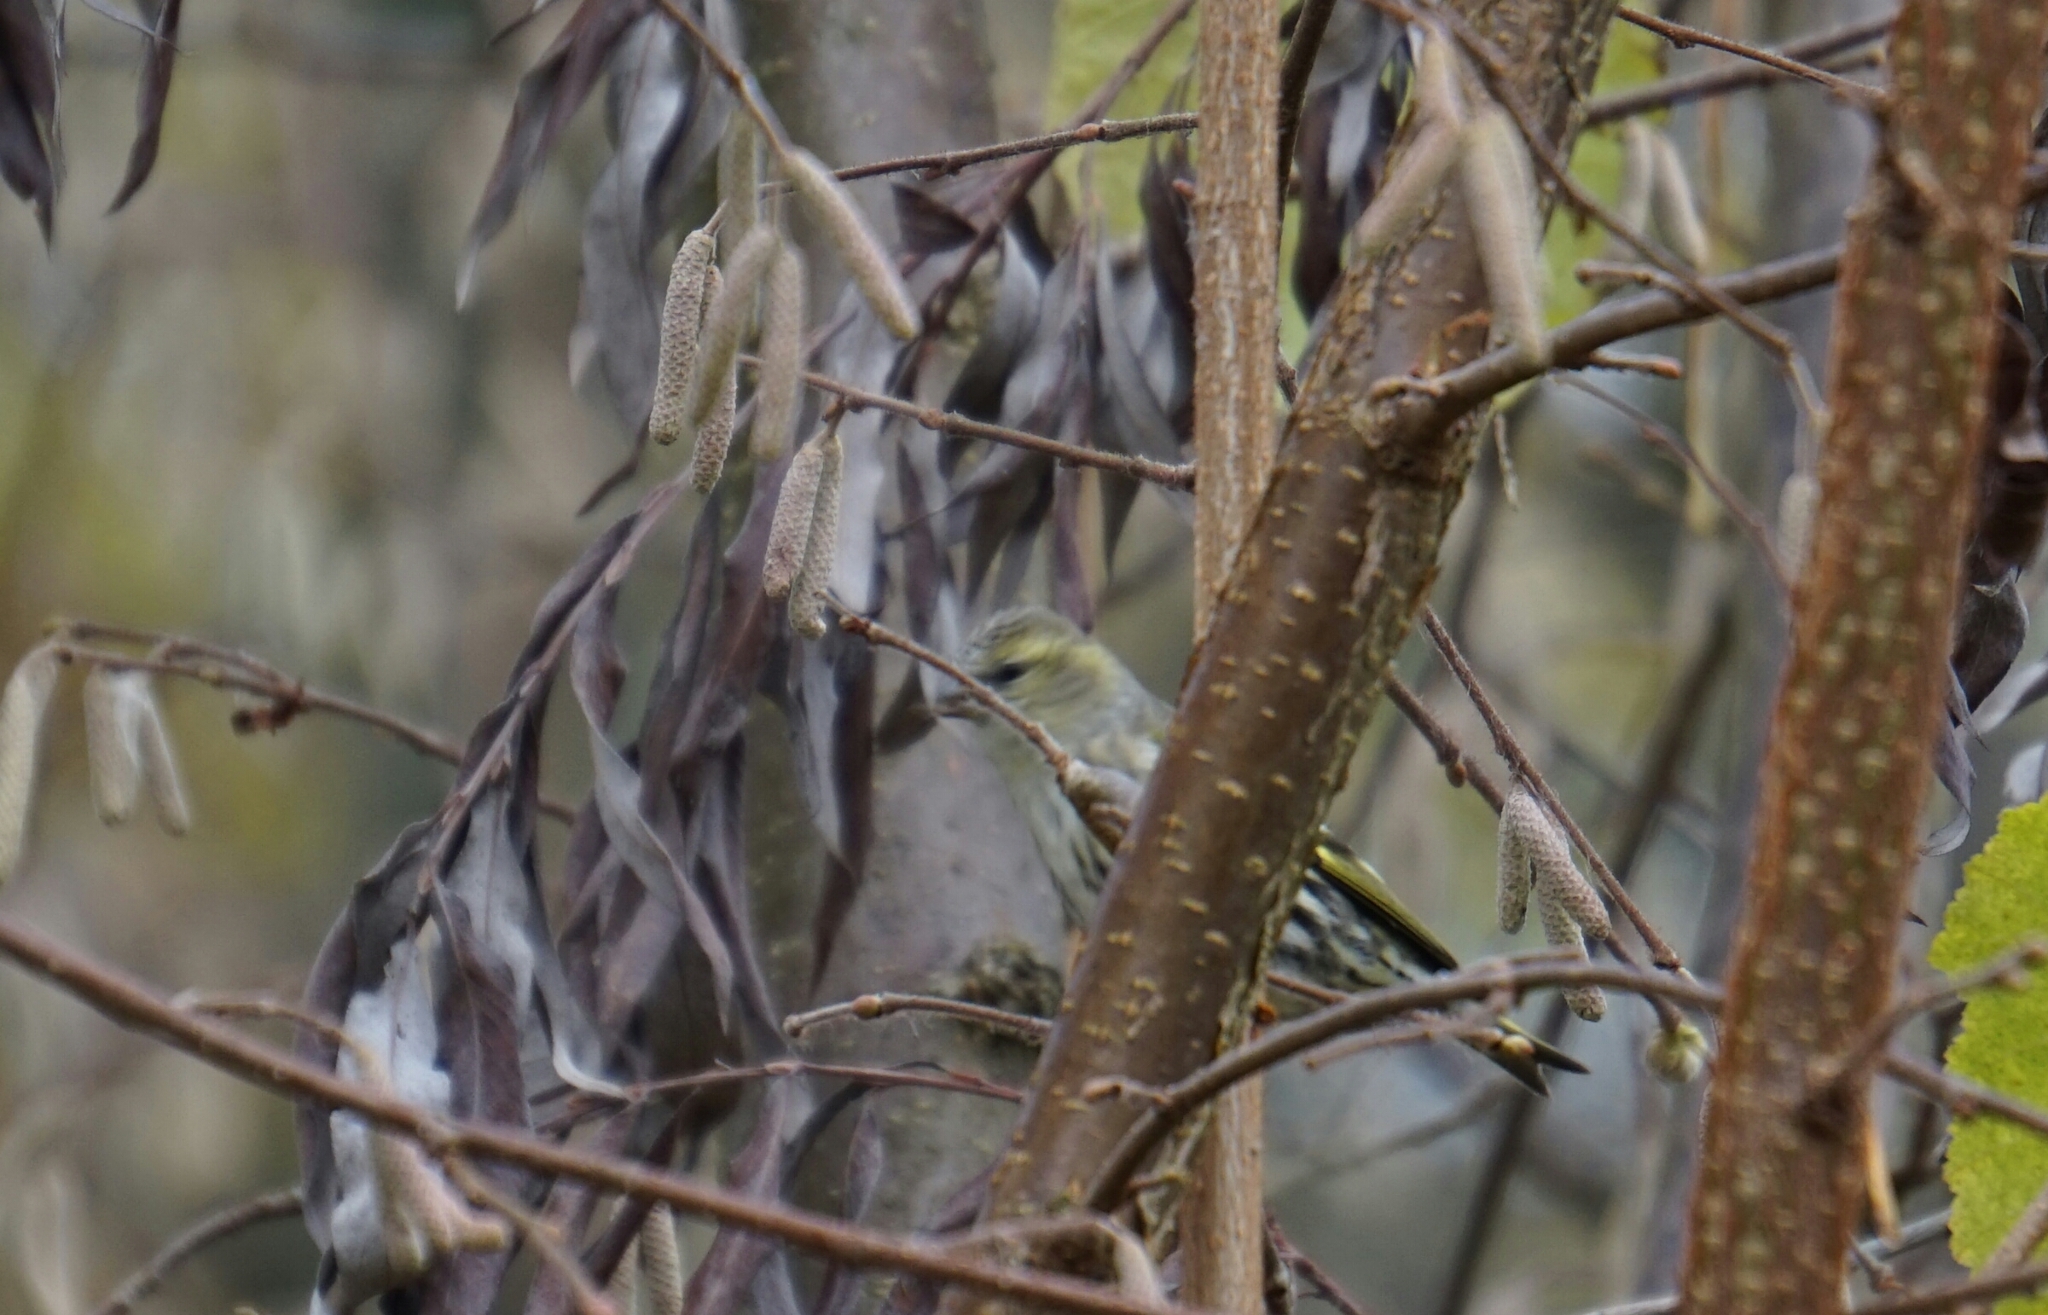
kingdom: Animalia
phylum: Chordata
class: Aves
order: Passeriformes
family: Fringillidae
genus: Spinus
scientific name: Spinus spinus
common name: Eurasian siskin
